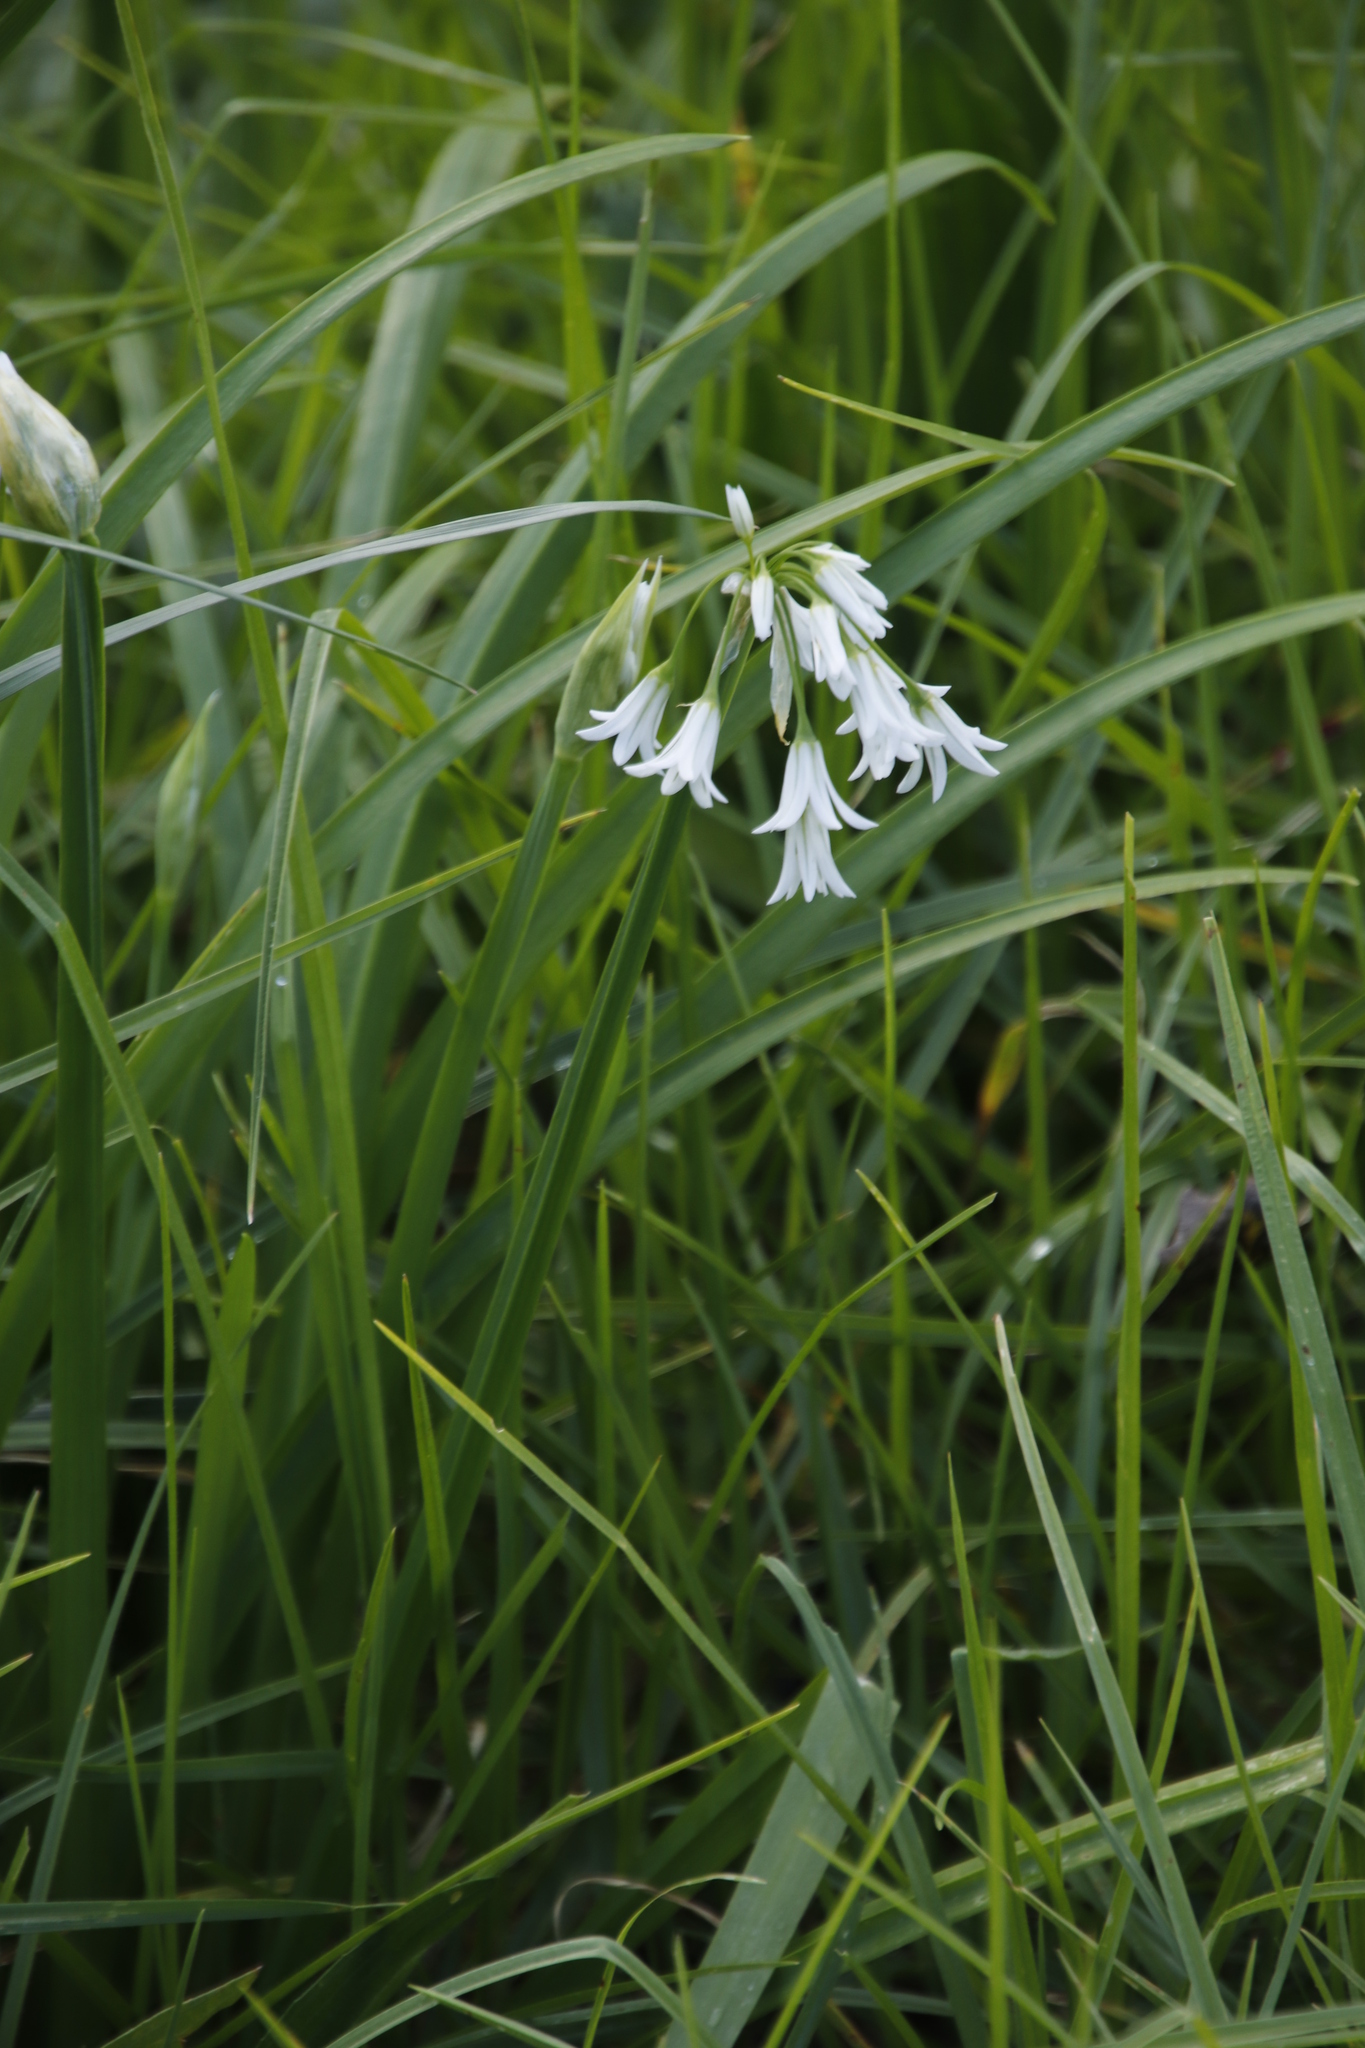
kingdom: Plantae
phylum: Tracheophyta
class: Liliopsida
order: Asparagales
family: Amaryllidaceae
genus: Allium
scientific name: Allium triquetrum
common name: Three-cornered garlic
